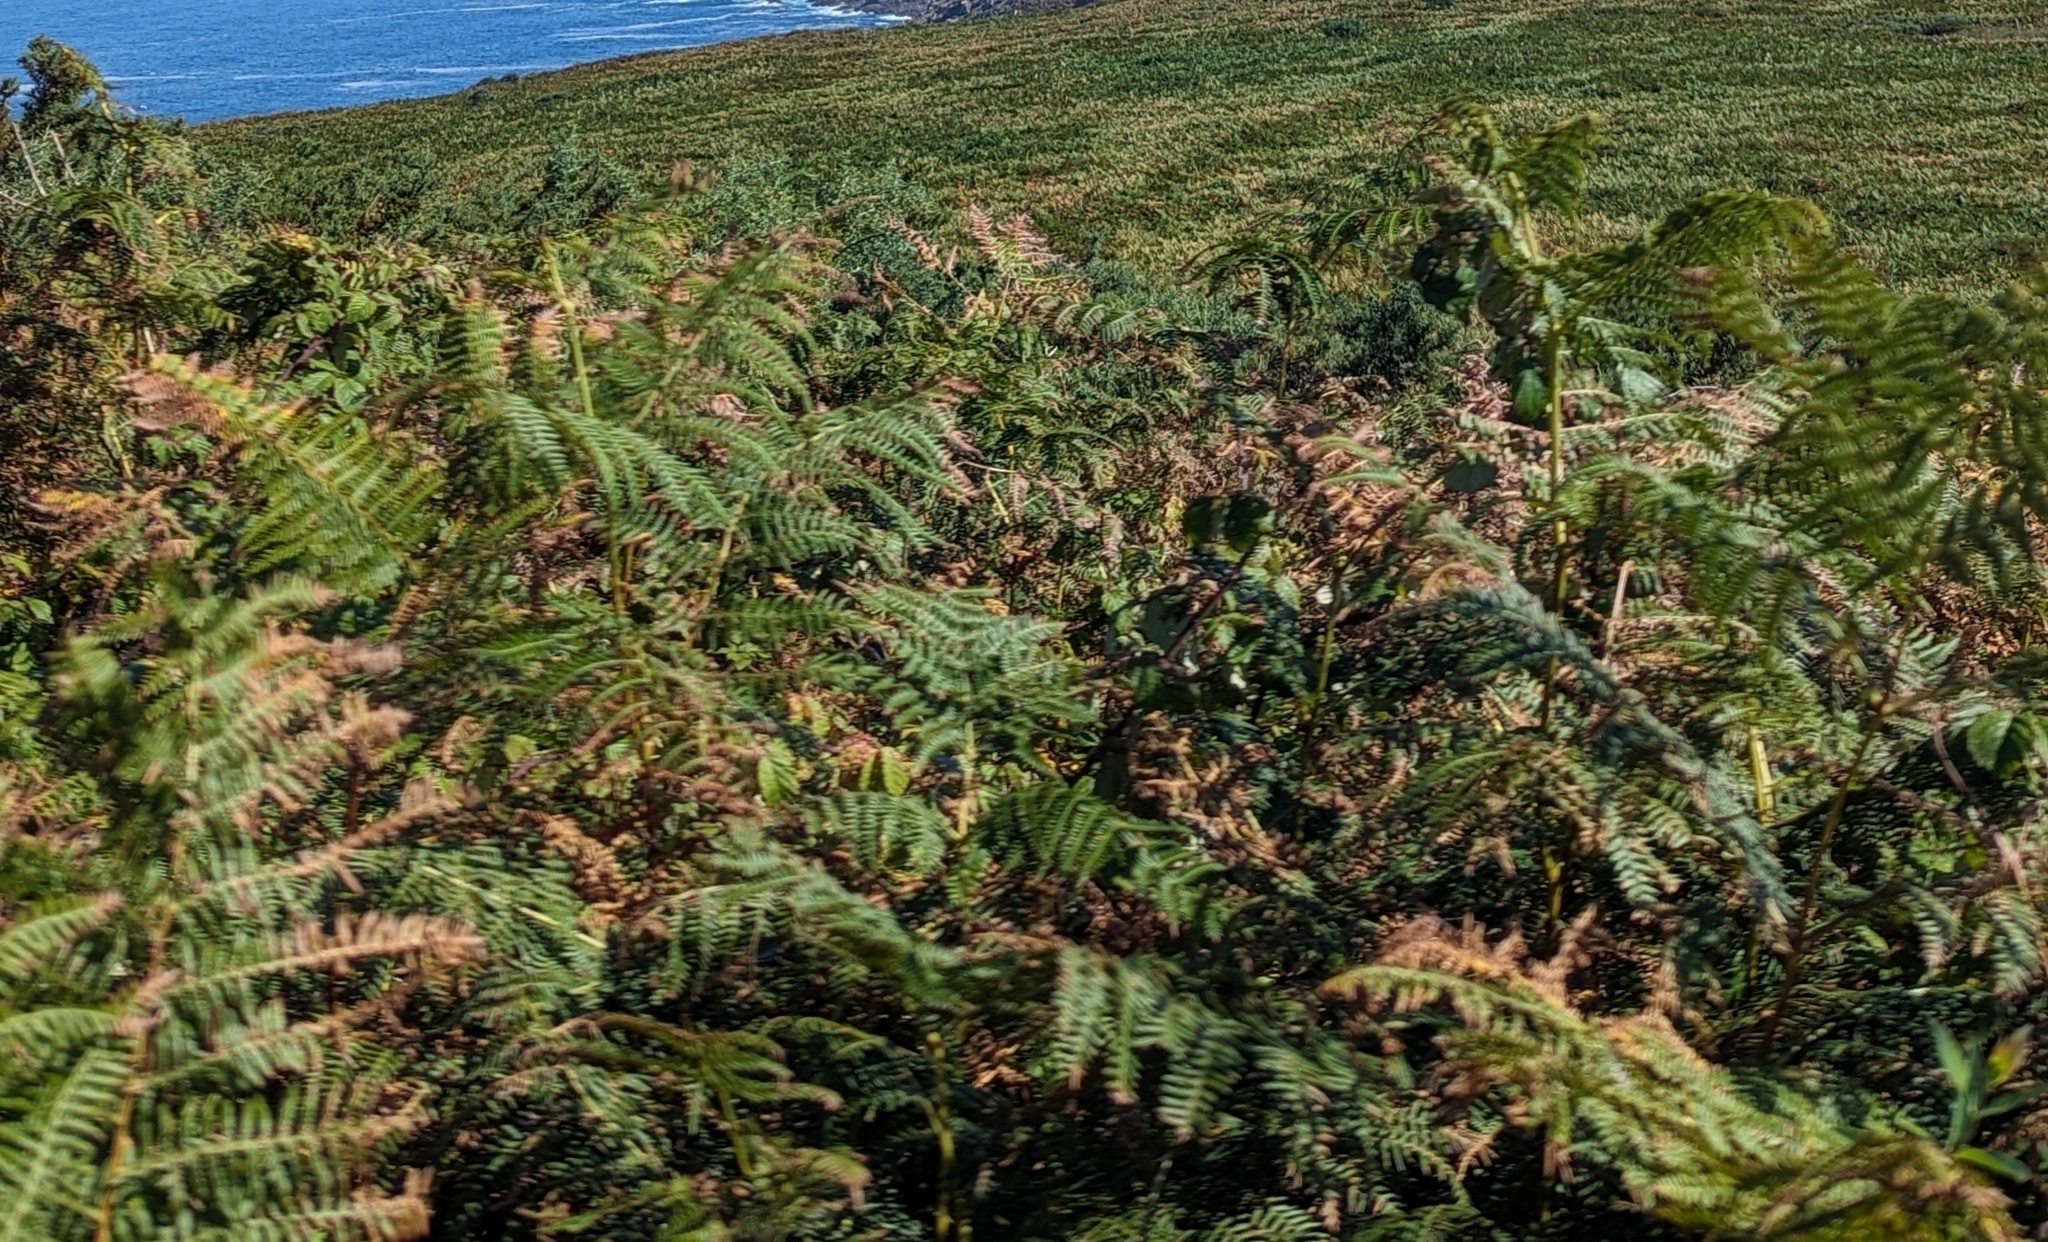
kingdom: Plantae
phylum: Tracheophyta
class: Polypodiopsida
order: Polypodiales
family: Dennstaedtiaceae
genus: Pteridium
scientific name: Pteridium aquilinum
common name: Bracken
